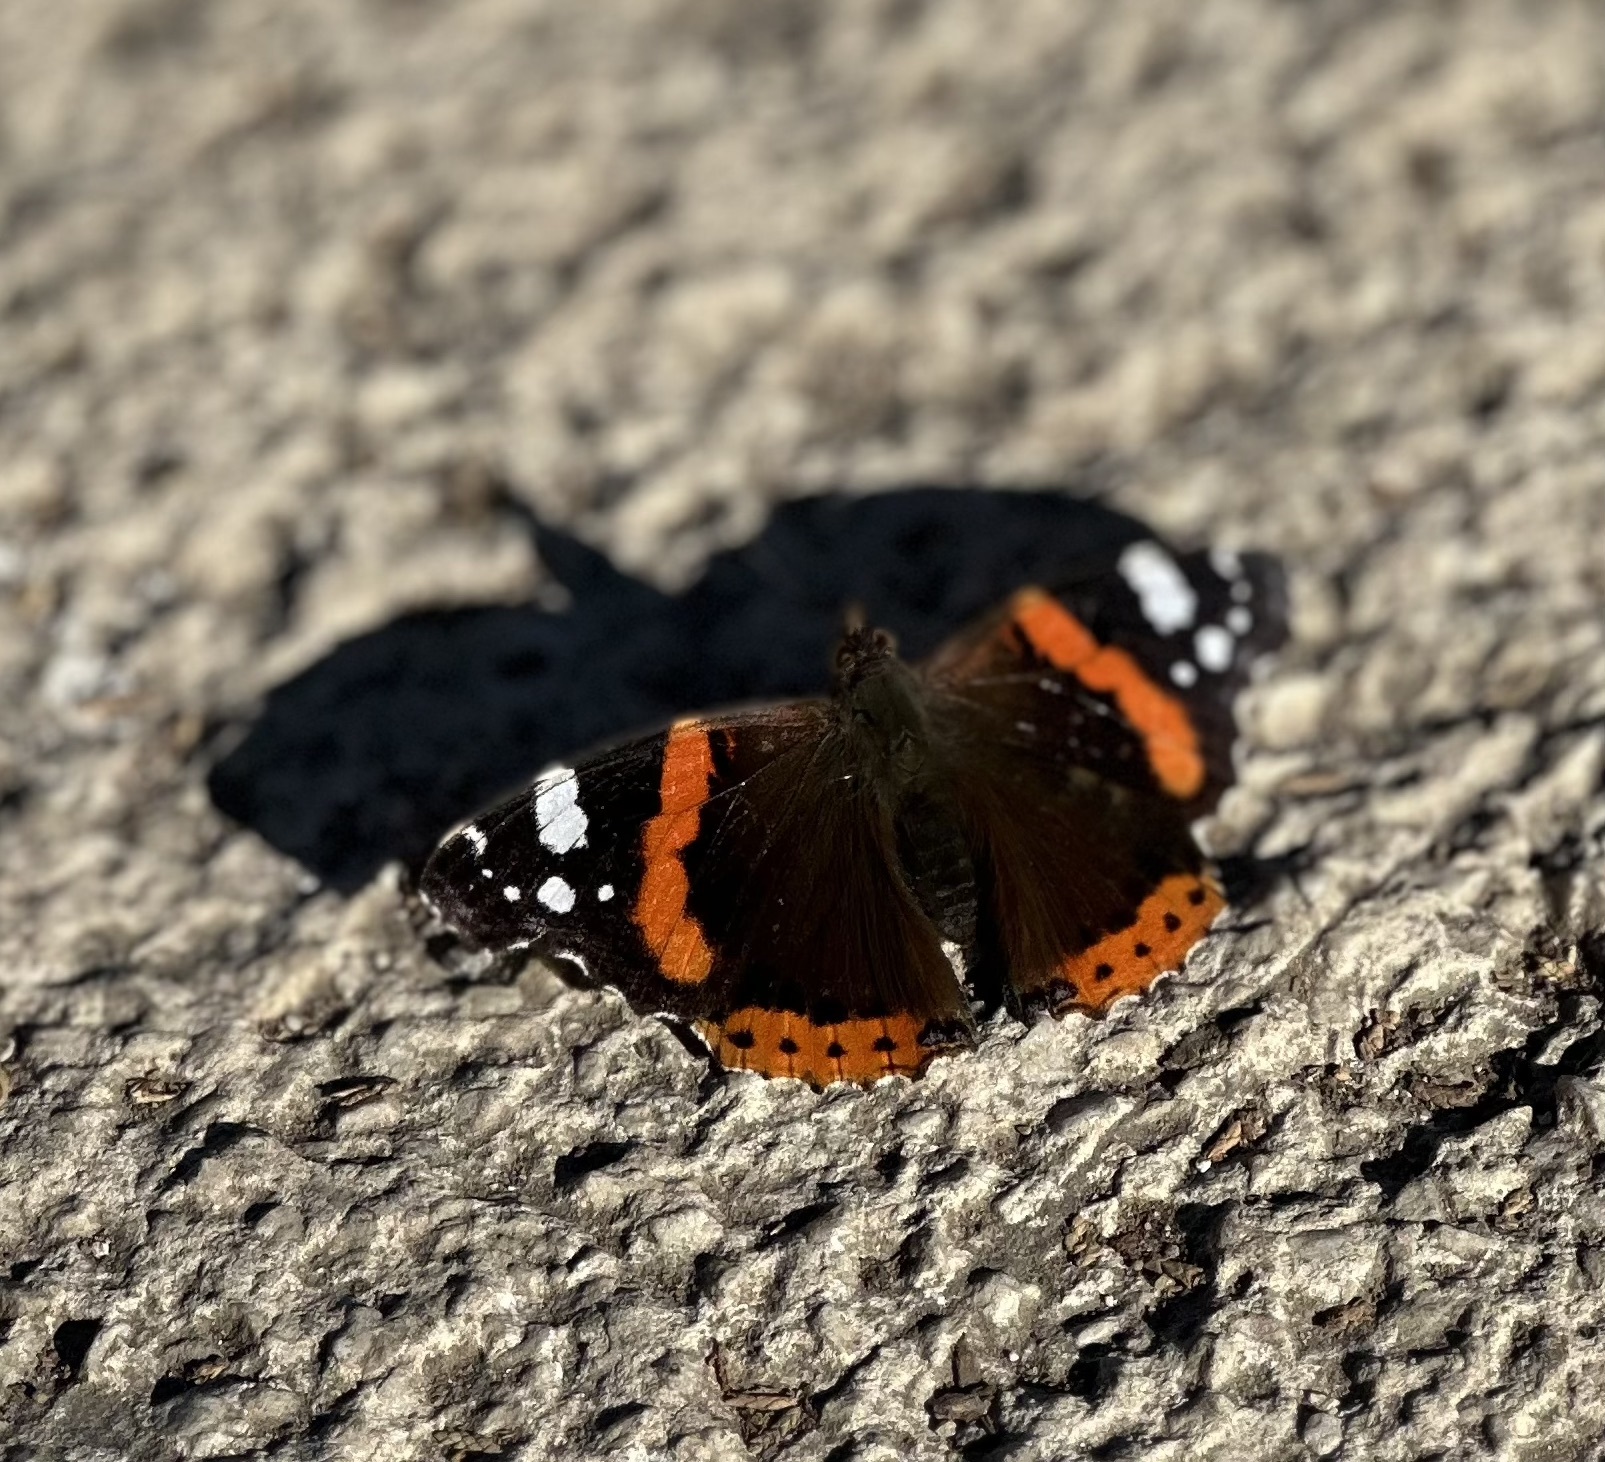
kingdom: Animalia
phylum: Arthropoda
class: Insecta
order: Lepidoptera
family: Nymphalidae
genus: Vanessa
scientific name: Vanessa atalanta
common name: Red admiral
